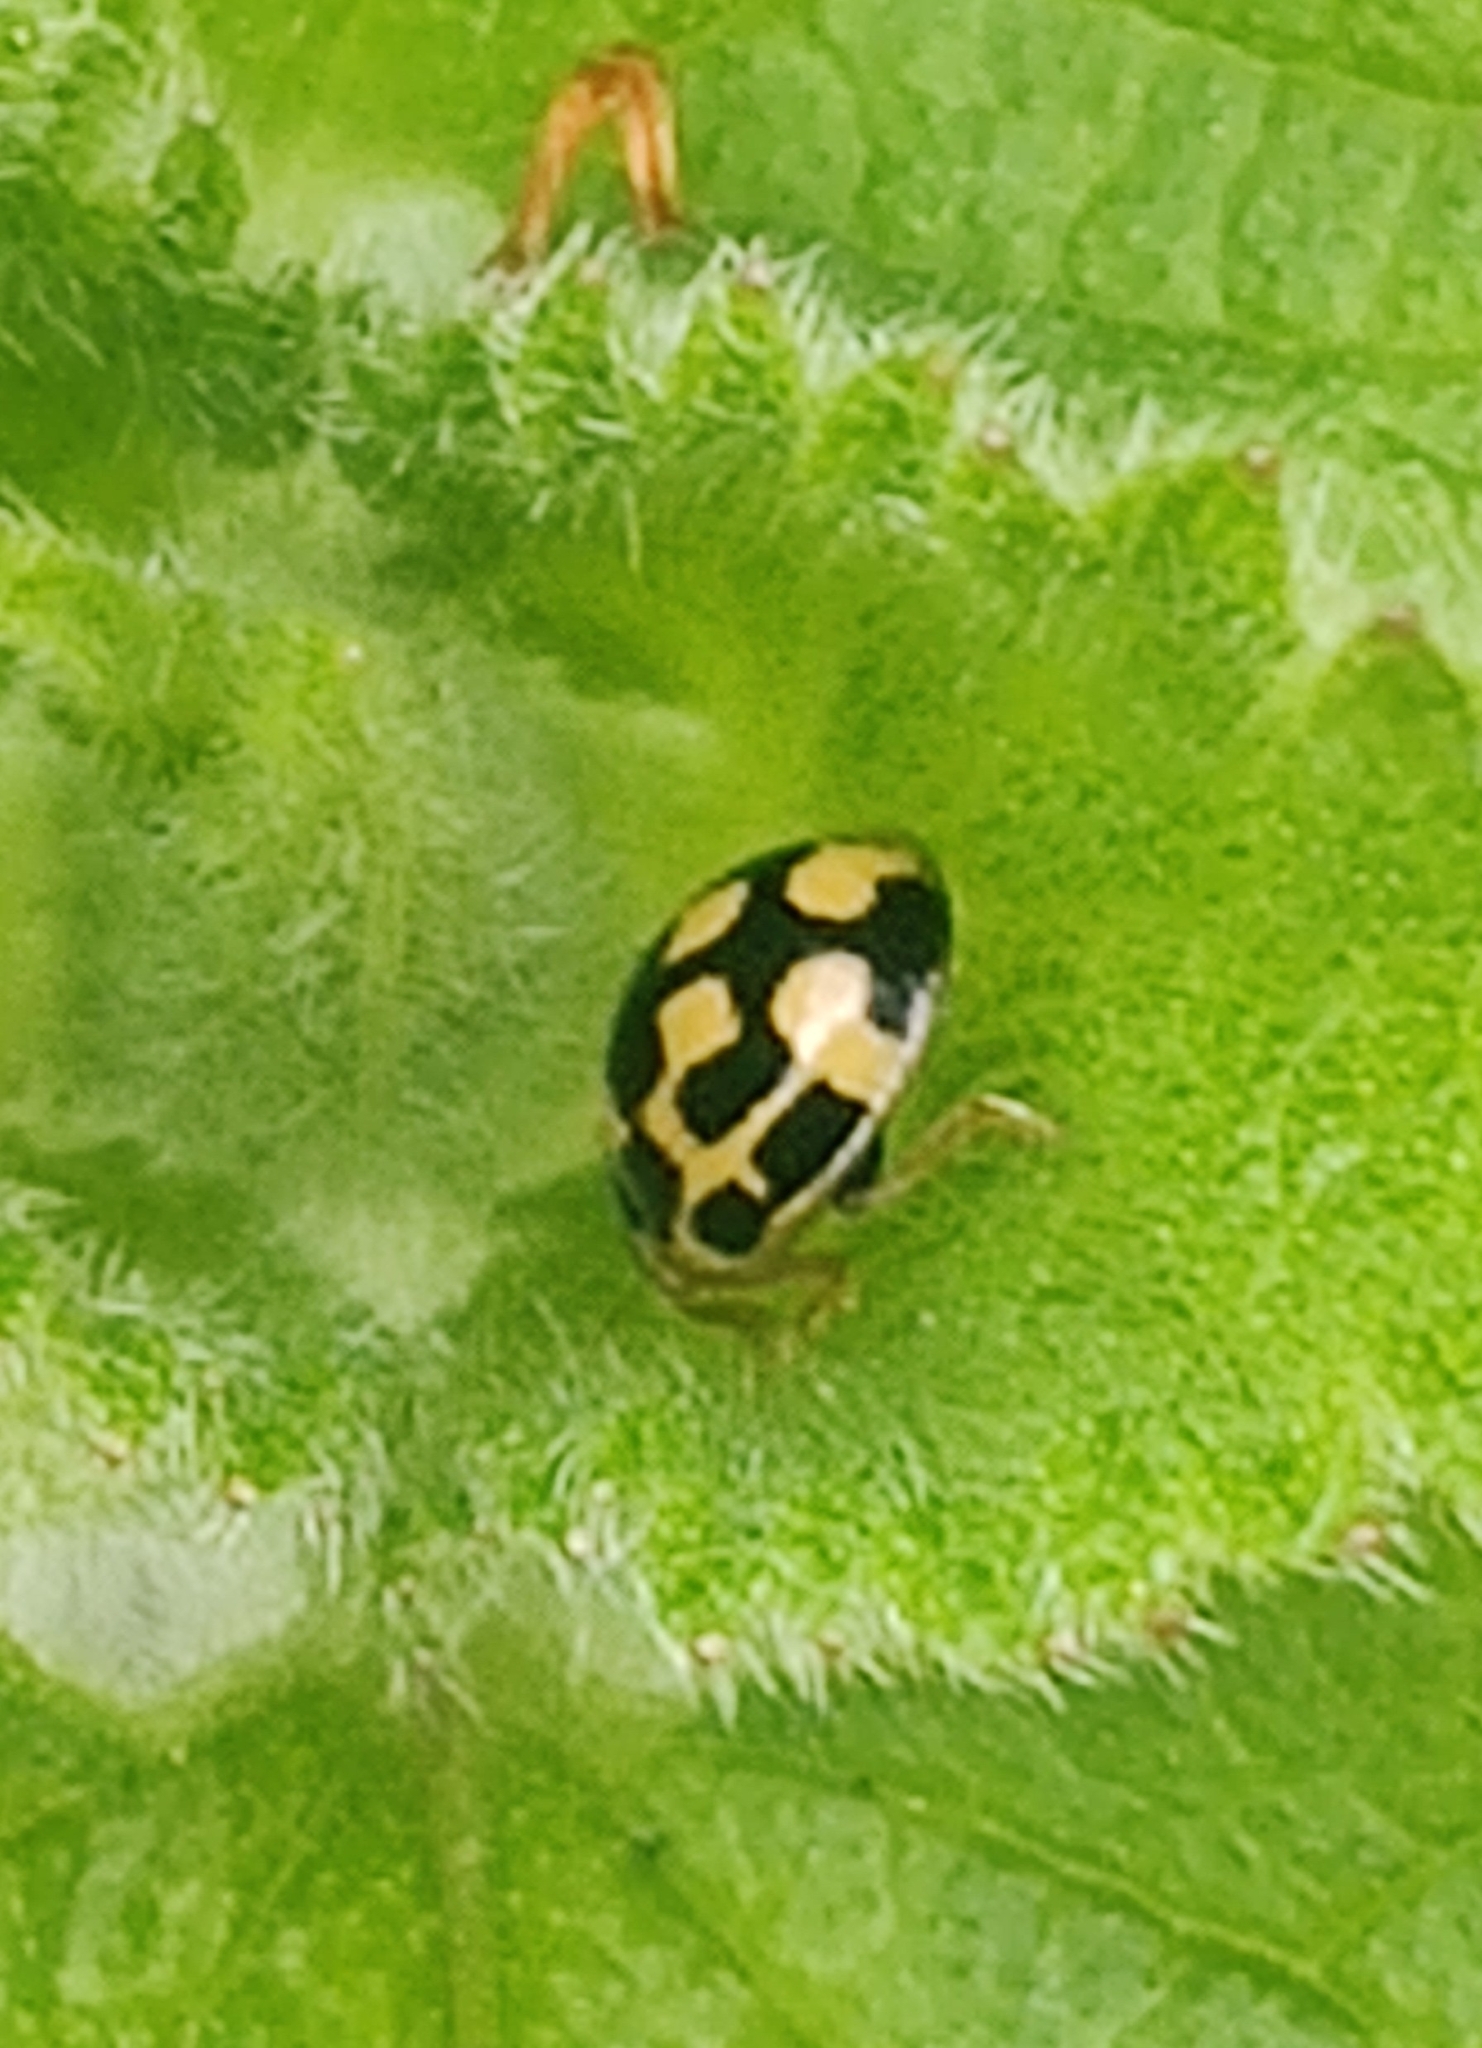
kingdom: Animalia
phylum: Arthropoda
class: Insecta
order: Coleoptera
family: Coccinellidae
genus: Propylaea
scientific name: Propylaea quatuordecimpunctata
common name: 14-spotted ladybird beetle
